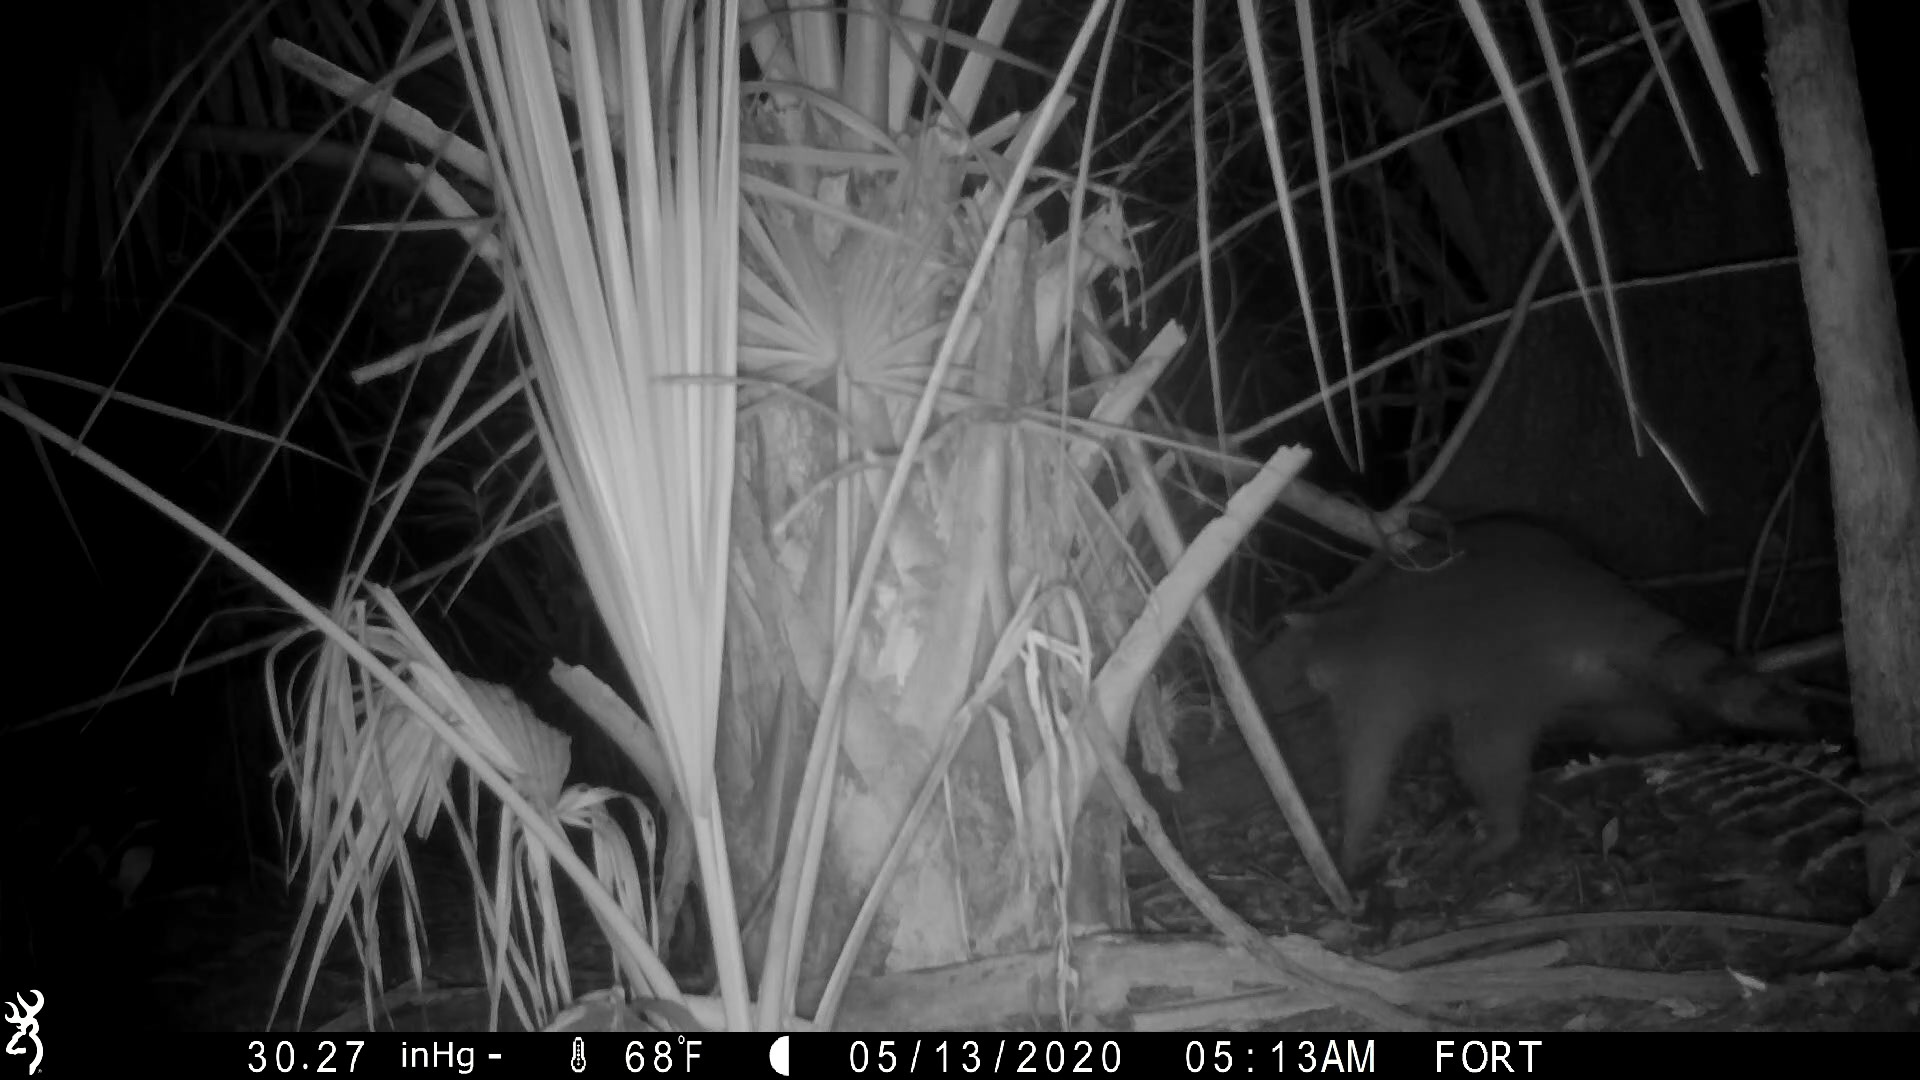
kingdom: Animalia
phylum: Chordata
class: Mammalia
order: Carnivora
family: Procyonidae
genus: Procyon
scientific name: Procyon lotor
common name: Raccoon
